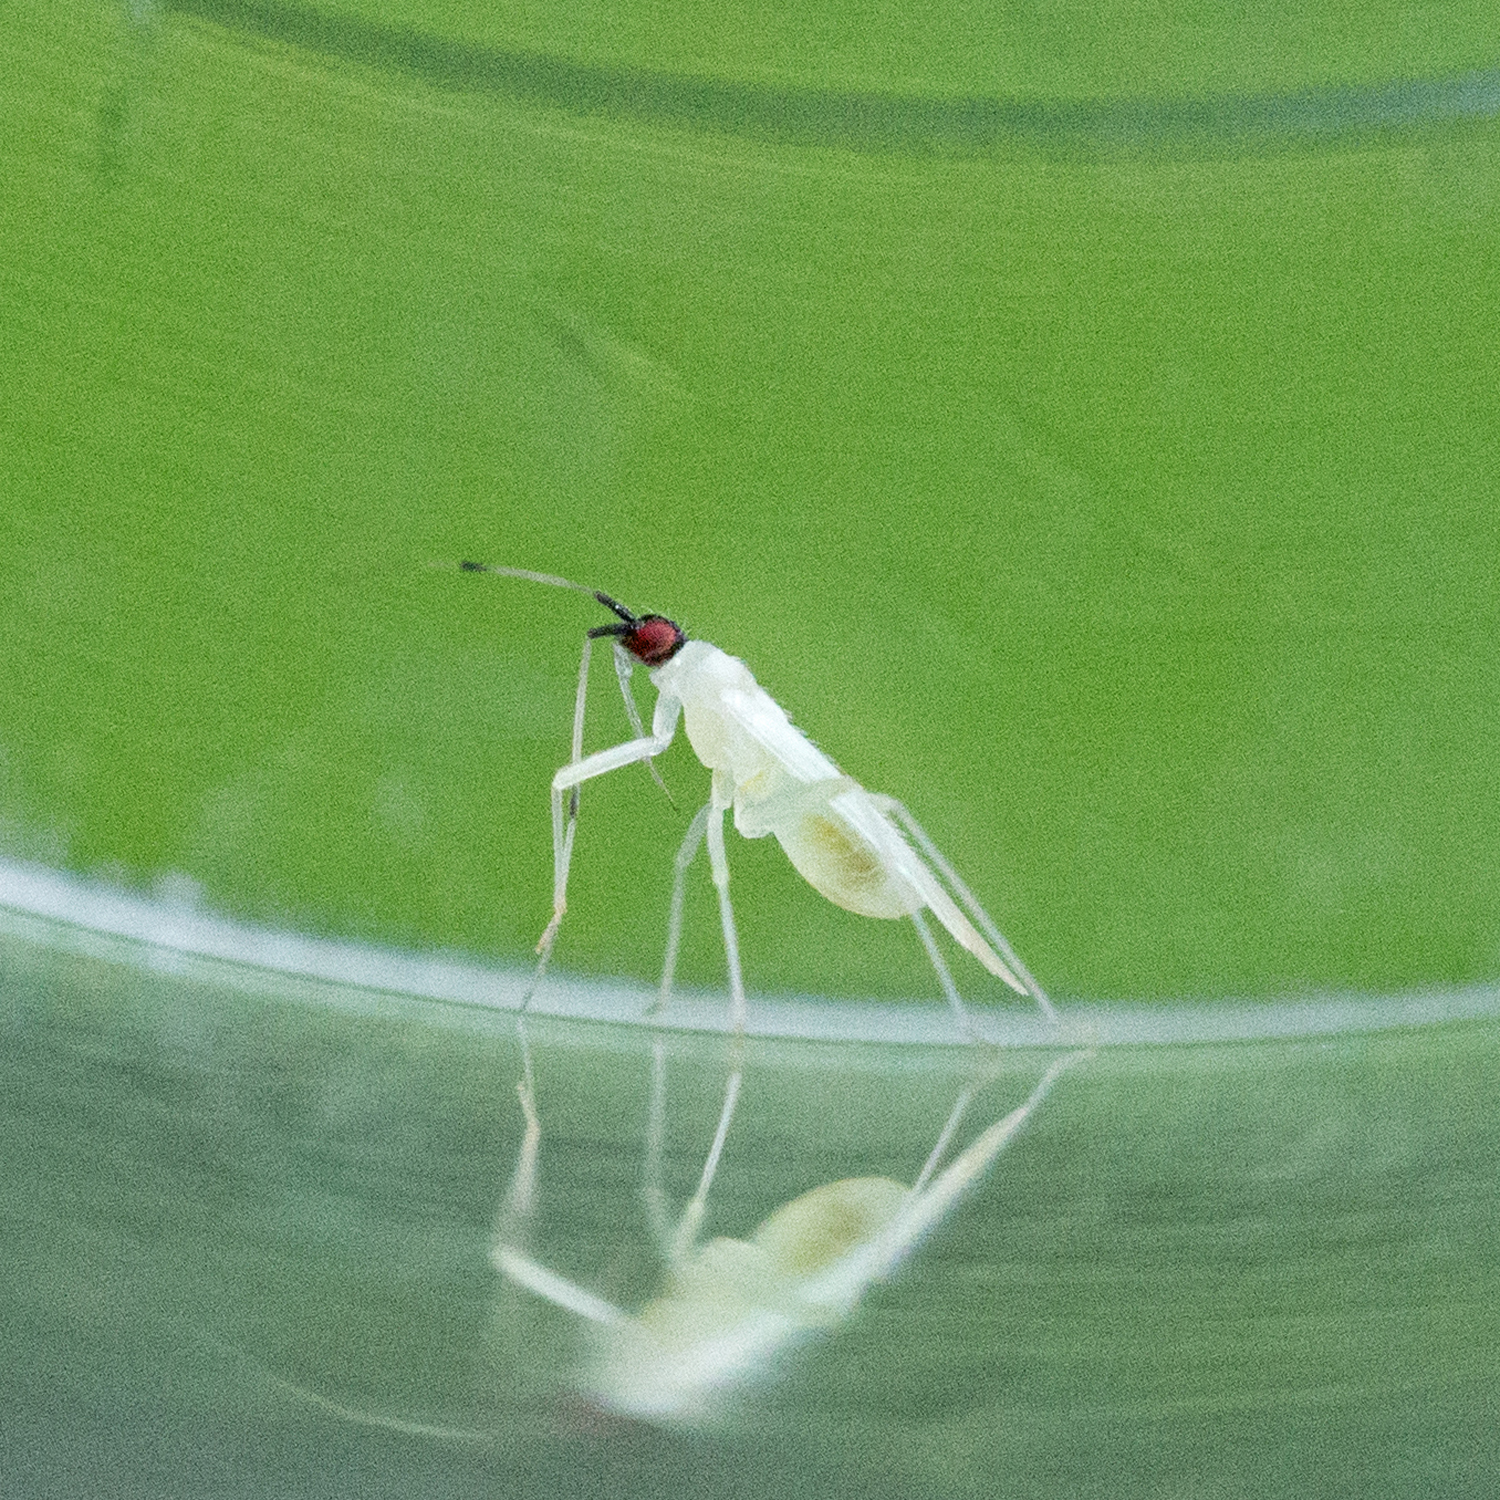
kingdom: Animalia
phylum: Arthropoda
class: Insecta
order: Hemiptera
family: Miridae
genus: Paraproba
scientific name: Paraproba capitata
